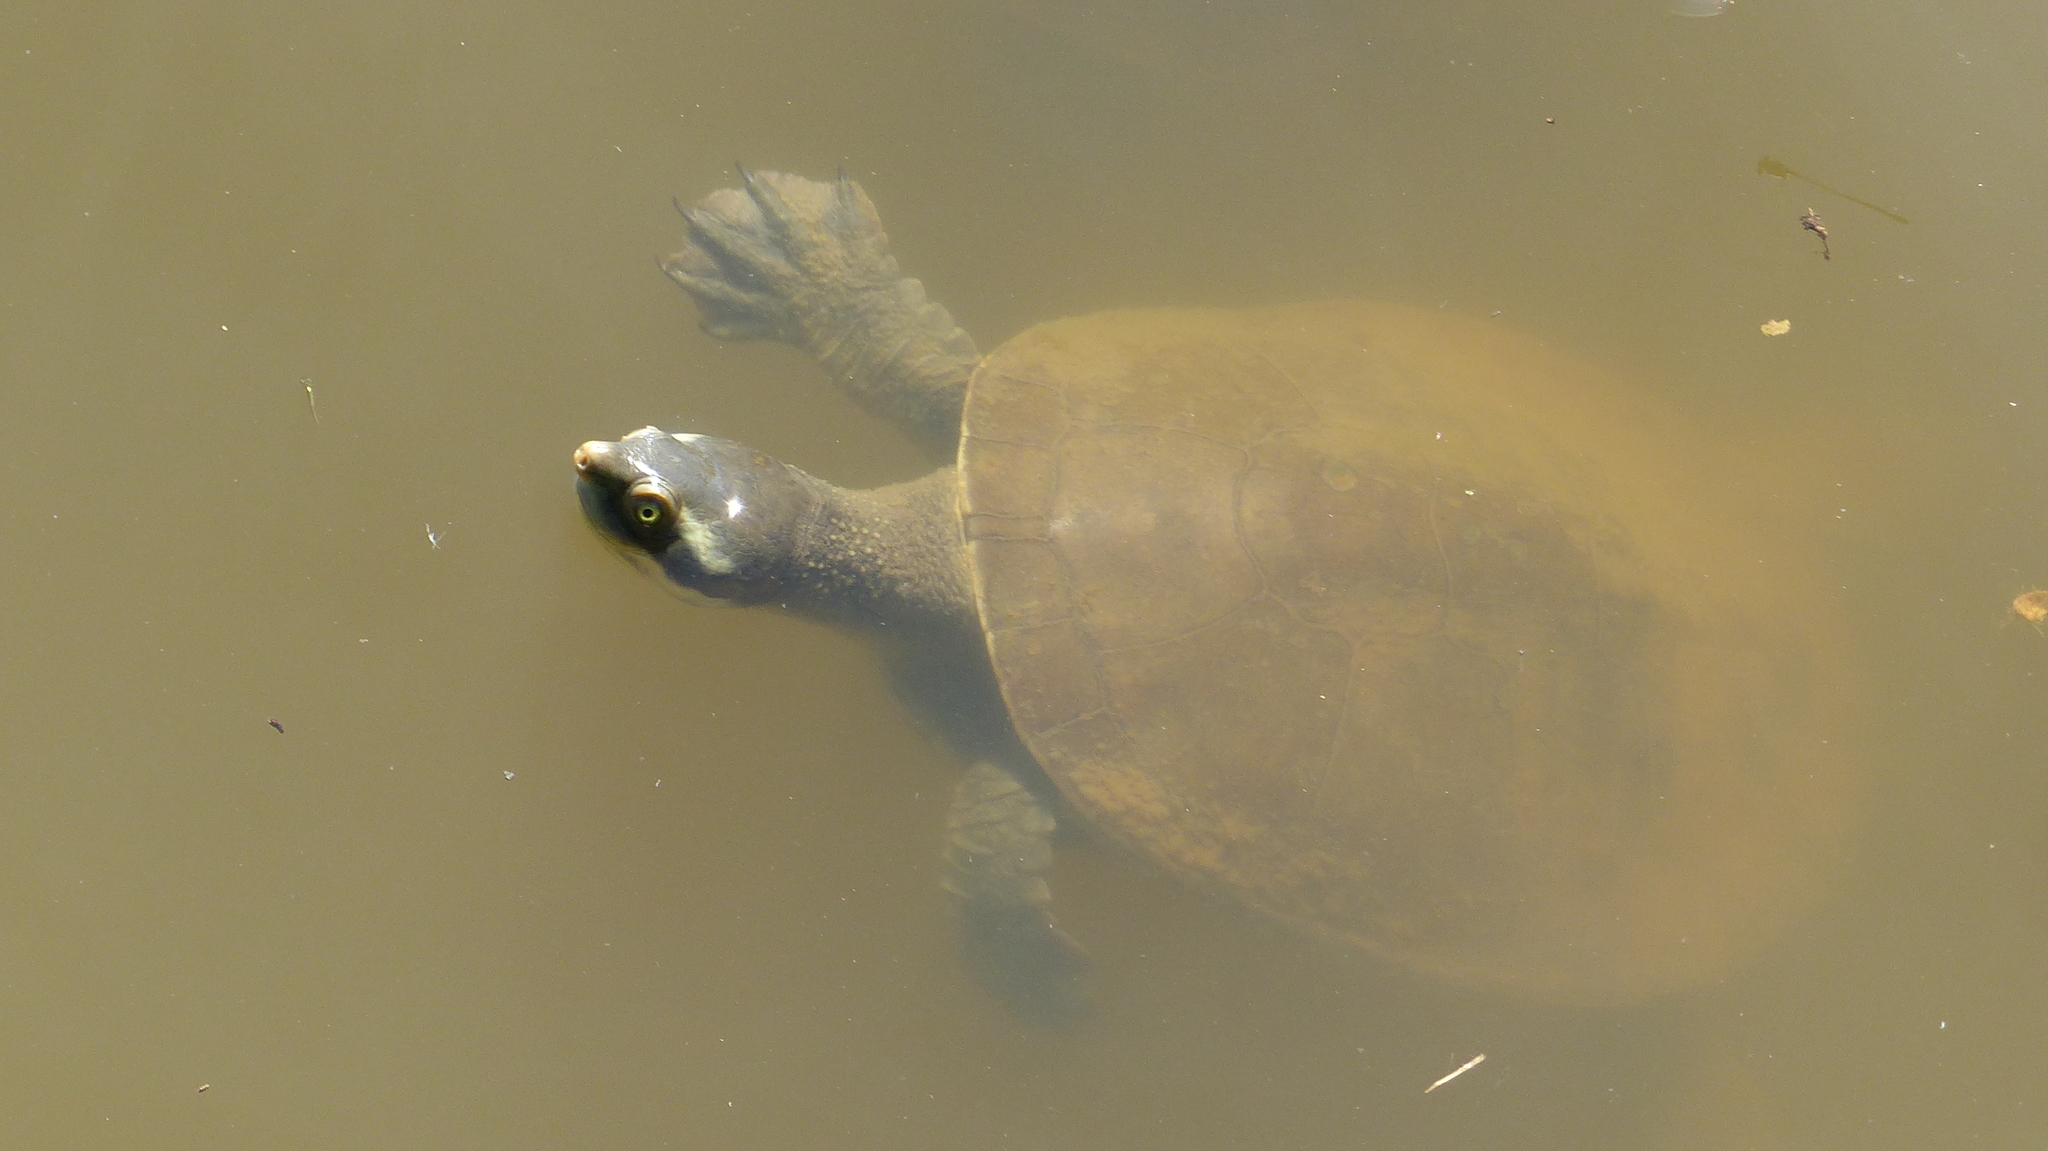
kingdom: Animalia
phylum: Chordata
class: Testudines
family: Chelidae
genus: Emydura
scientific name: Emydura macquarii
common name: Murray river turtle
